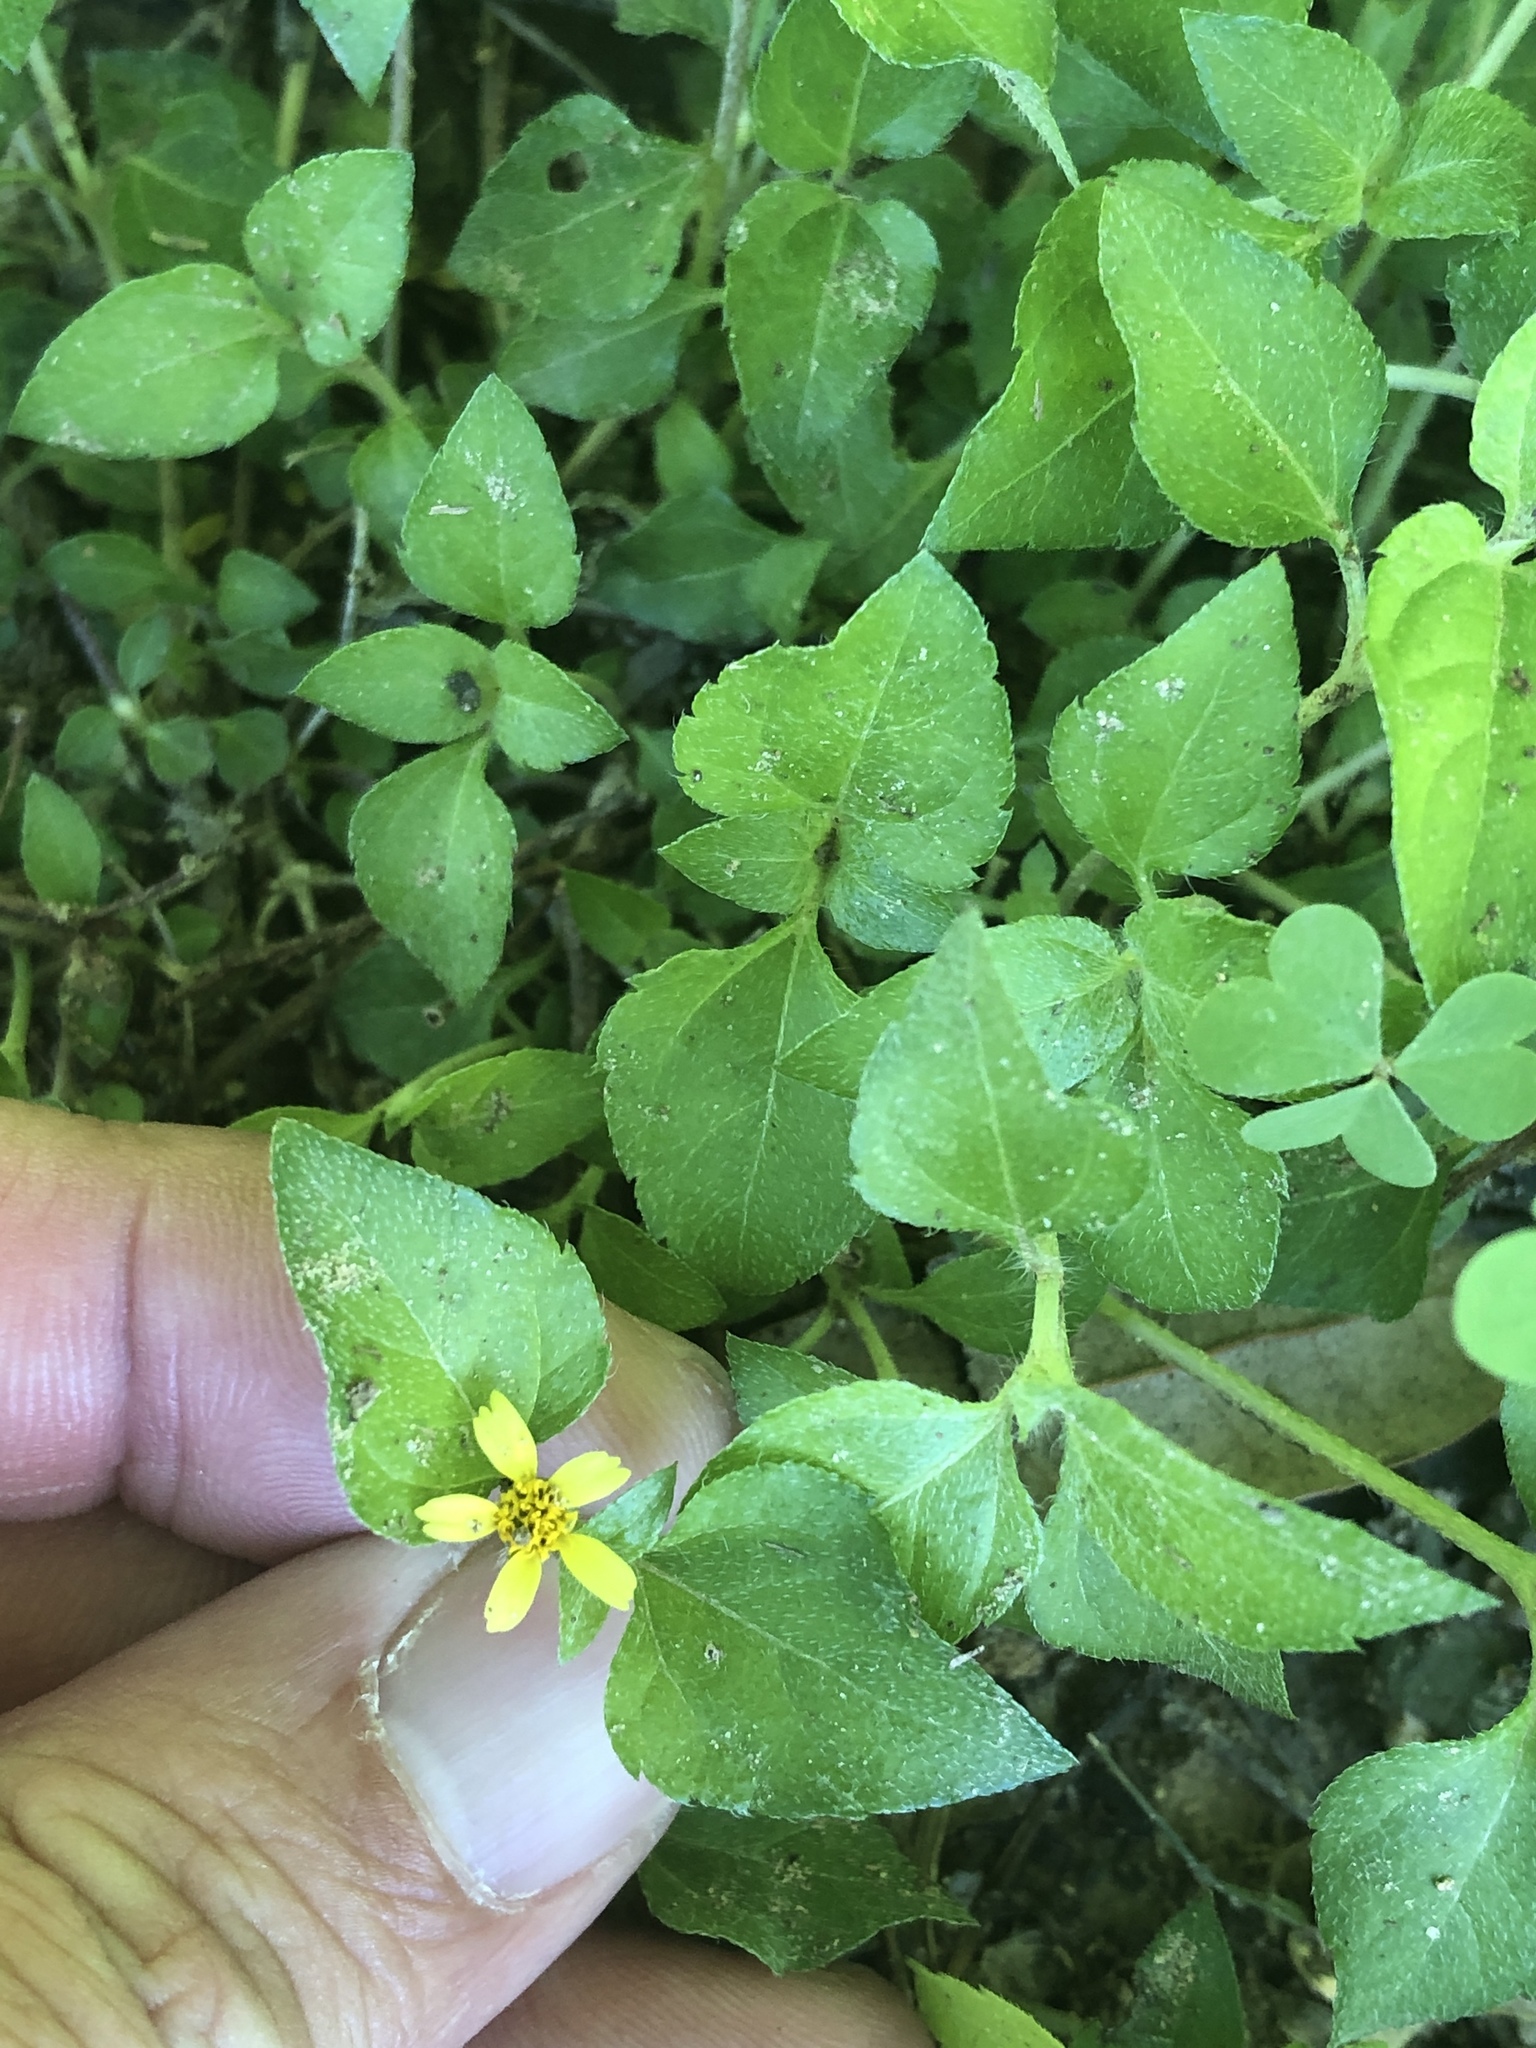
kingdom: Plantae
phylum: Tracheophyta
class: Magnoliopsida
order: Asterales
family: Asteraceae
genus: Calyptocarpus
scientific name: Calyptocarpus vialis
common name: Straggler daisy
